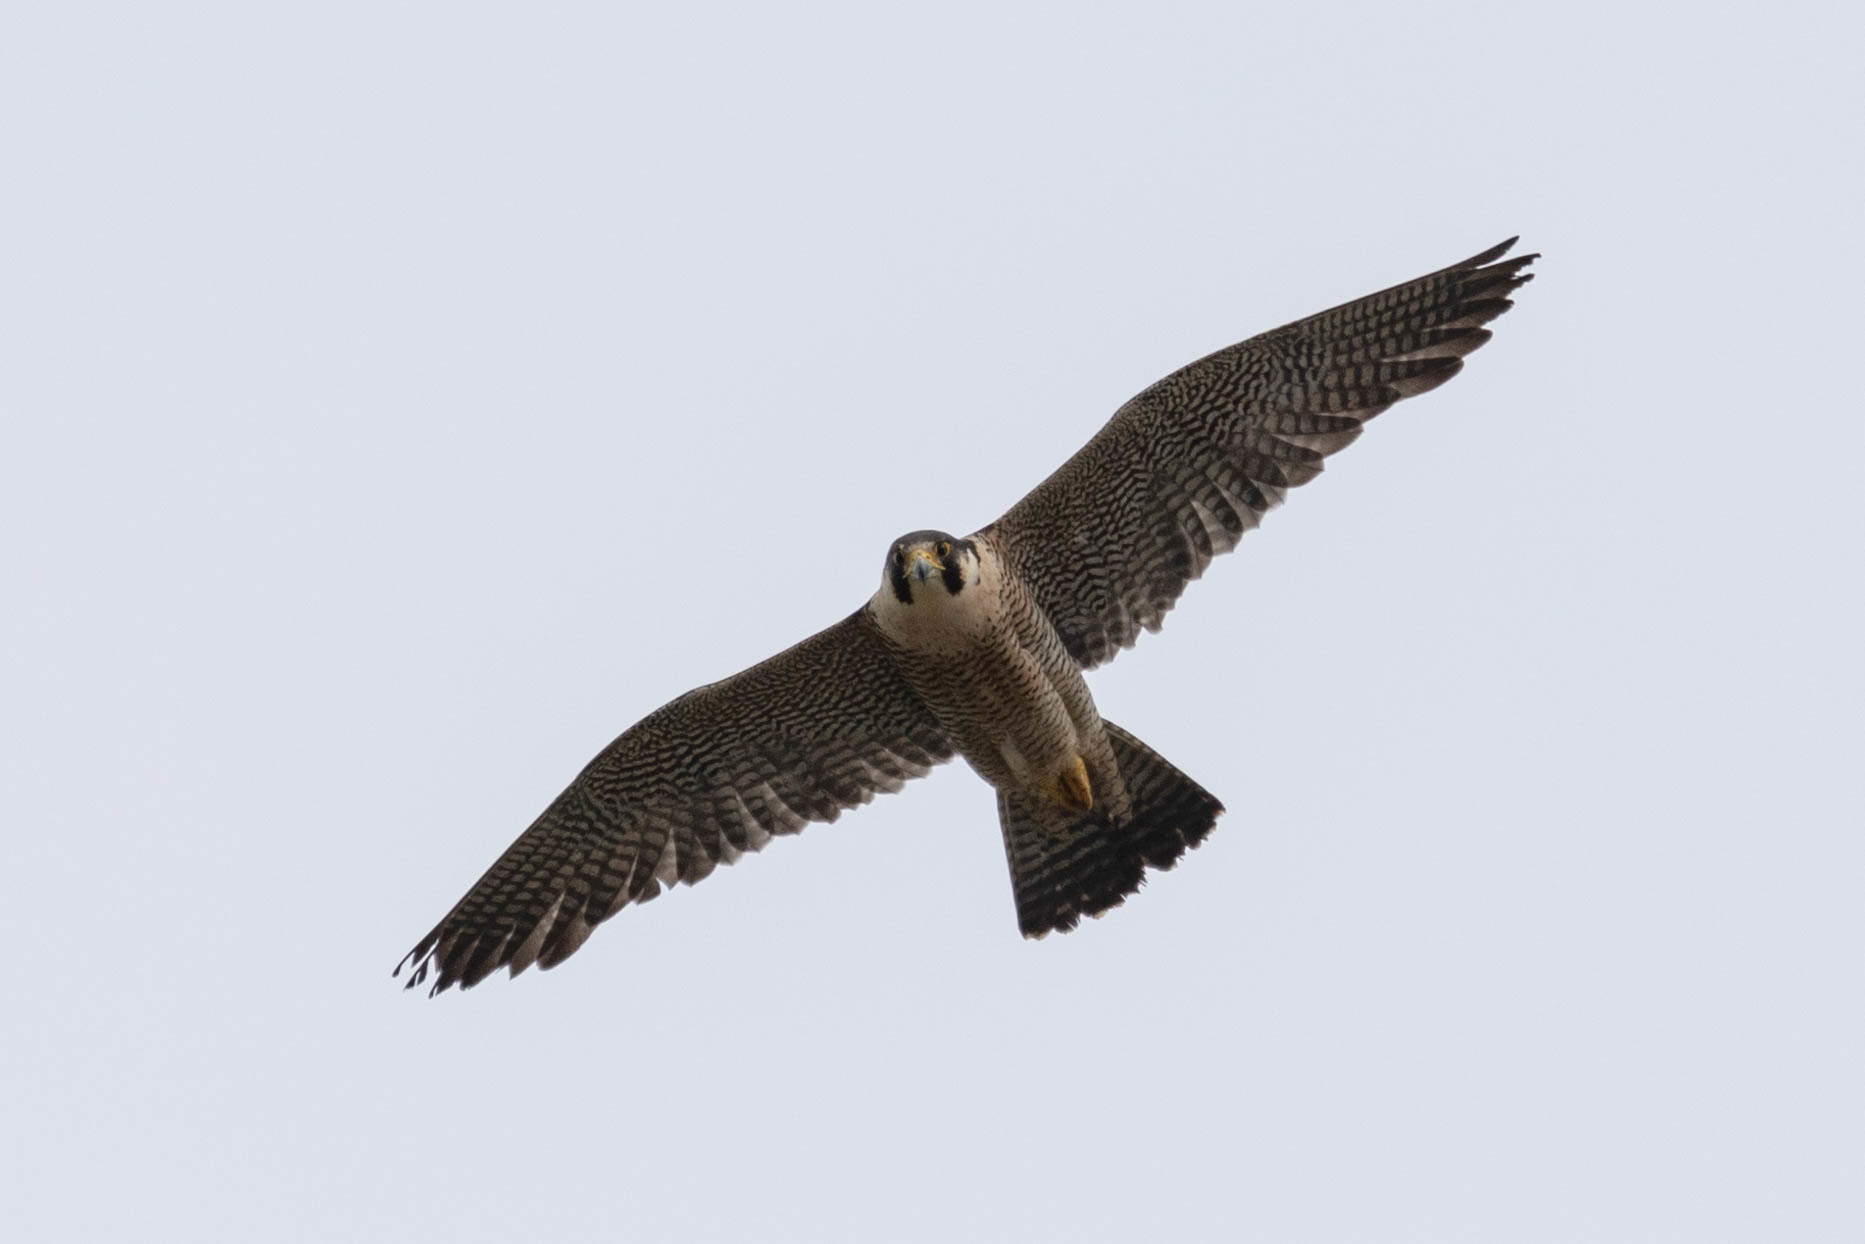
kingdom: Animalia
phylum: Chordata
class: Aves
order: Falconiformes
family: Falconidae
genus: Falco
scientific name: Falco peregrinus
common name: Peregrine falcon
